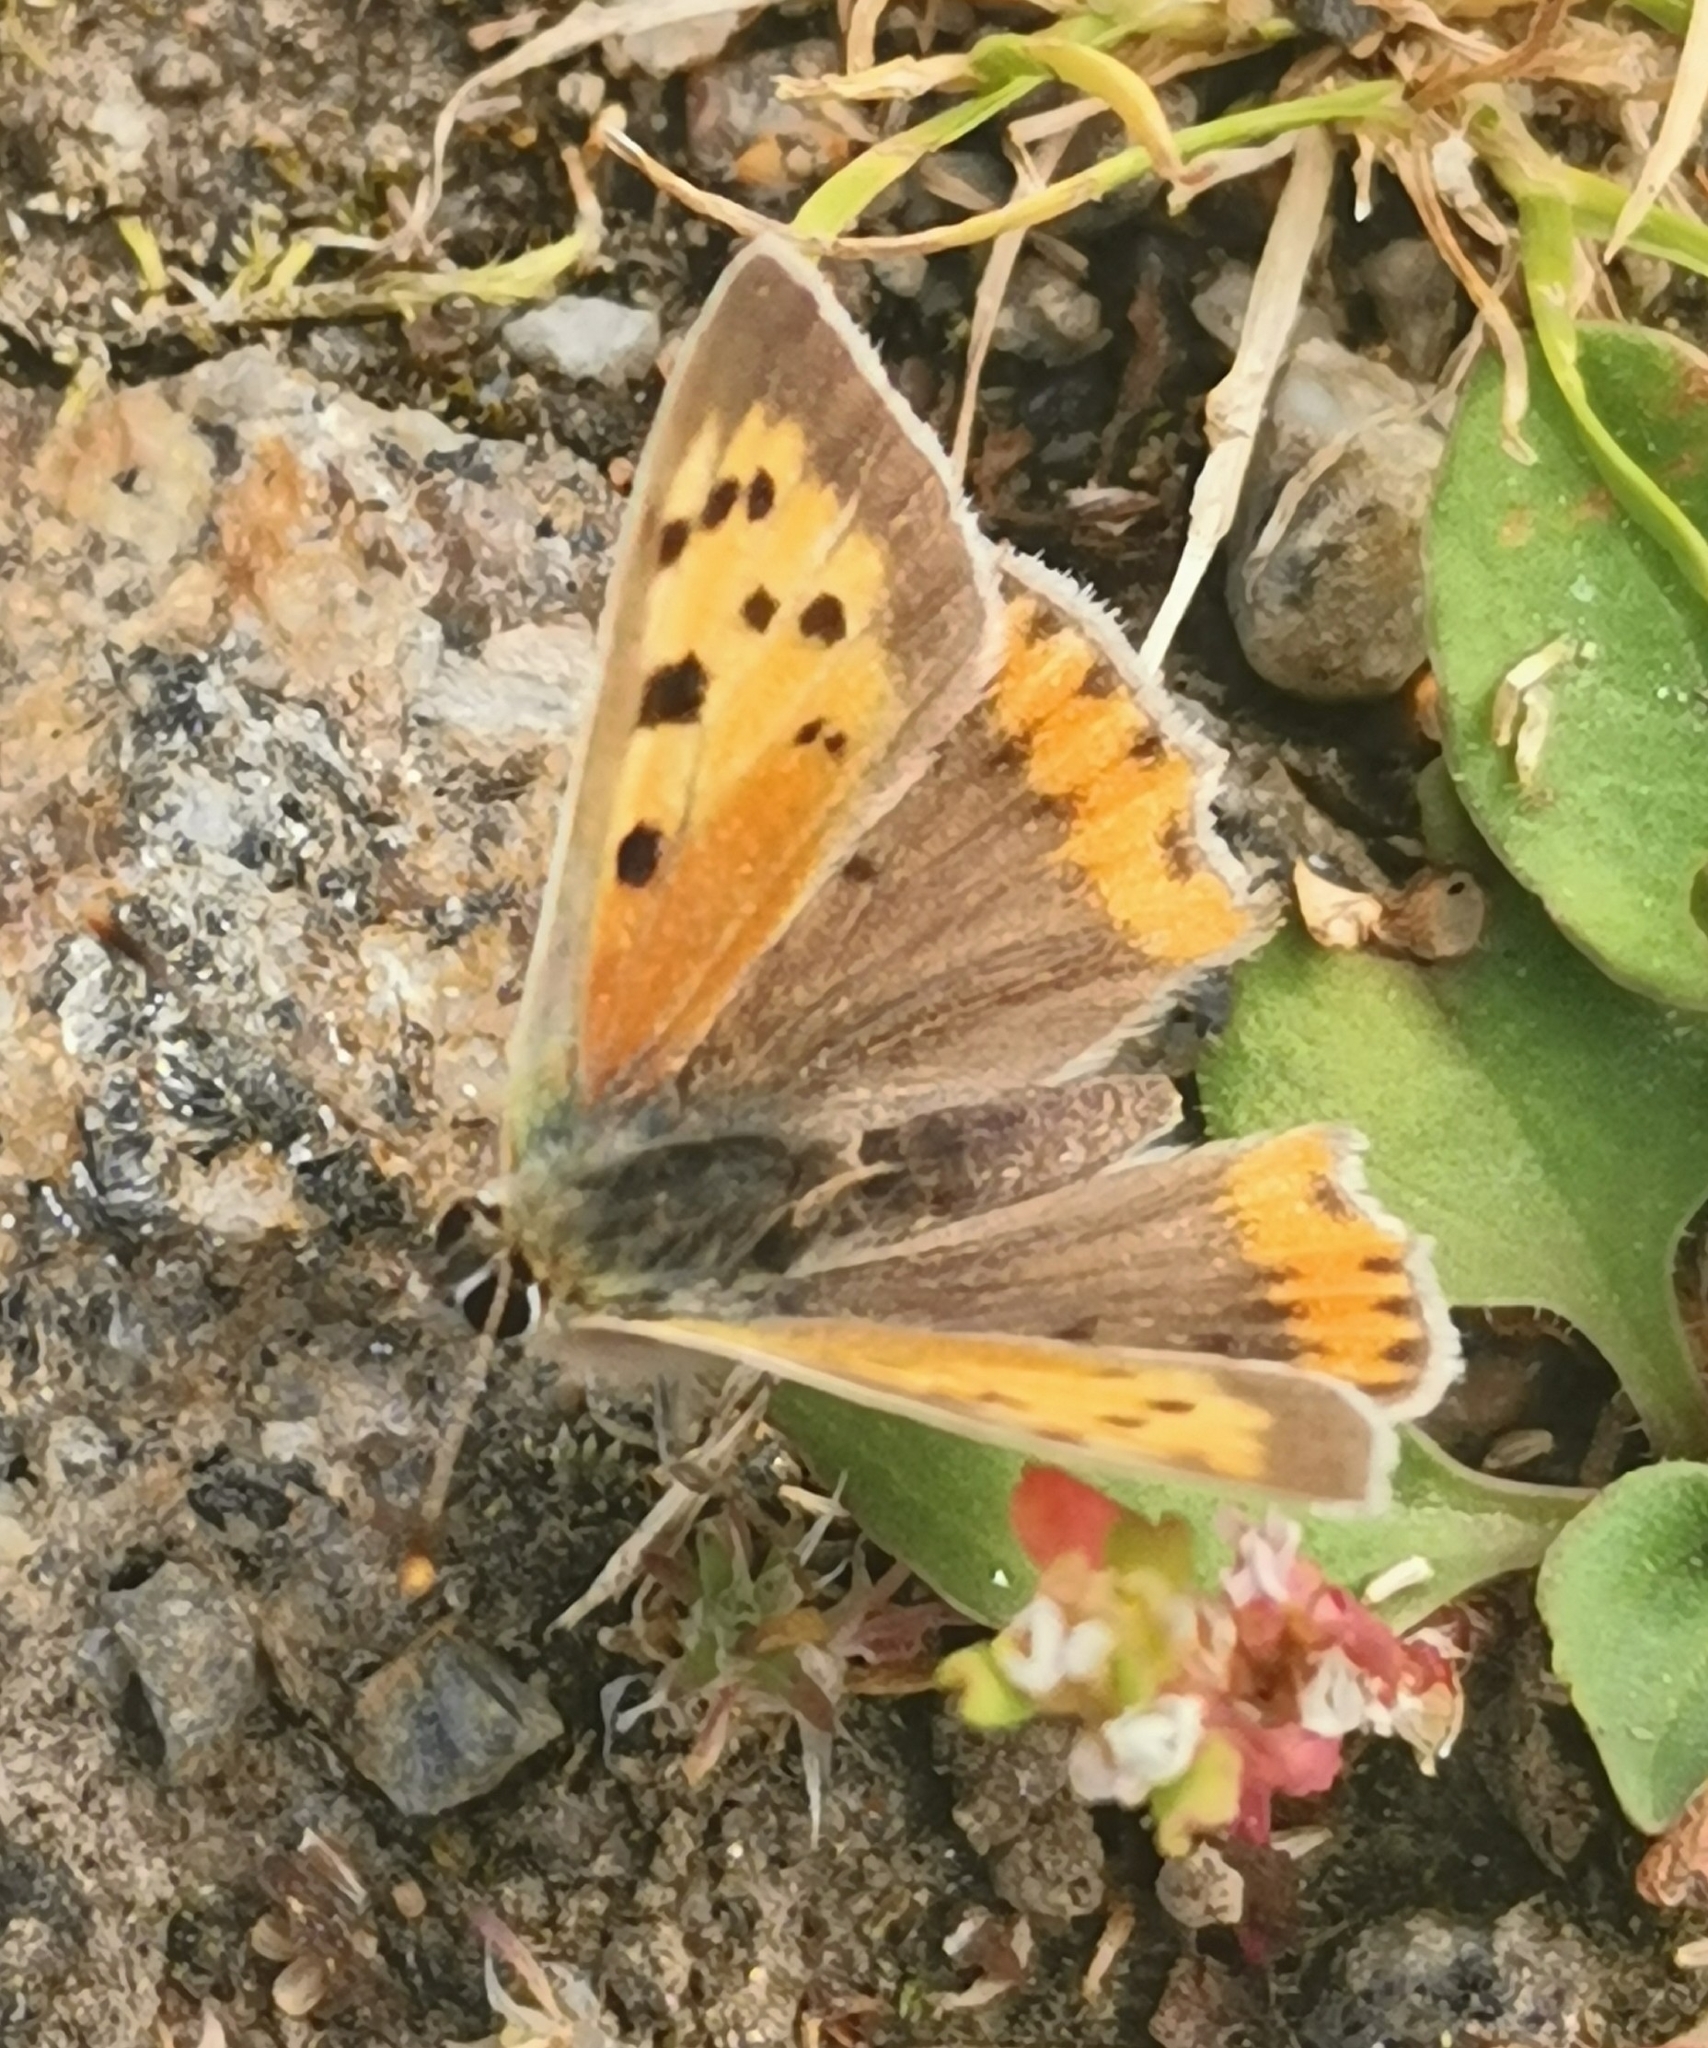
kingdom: Animalia
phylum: Arthropoda
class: Insecta
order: Lepidoptera
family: Lycaenidae
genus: Lycaena
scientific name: Lycaena phlaeas
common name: Small copper
